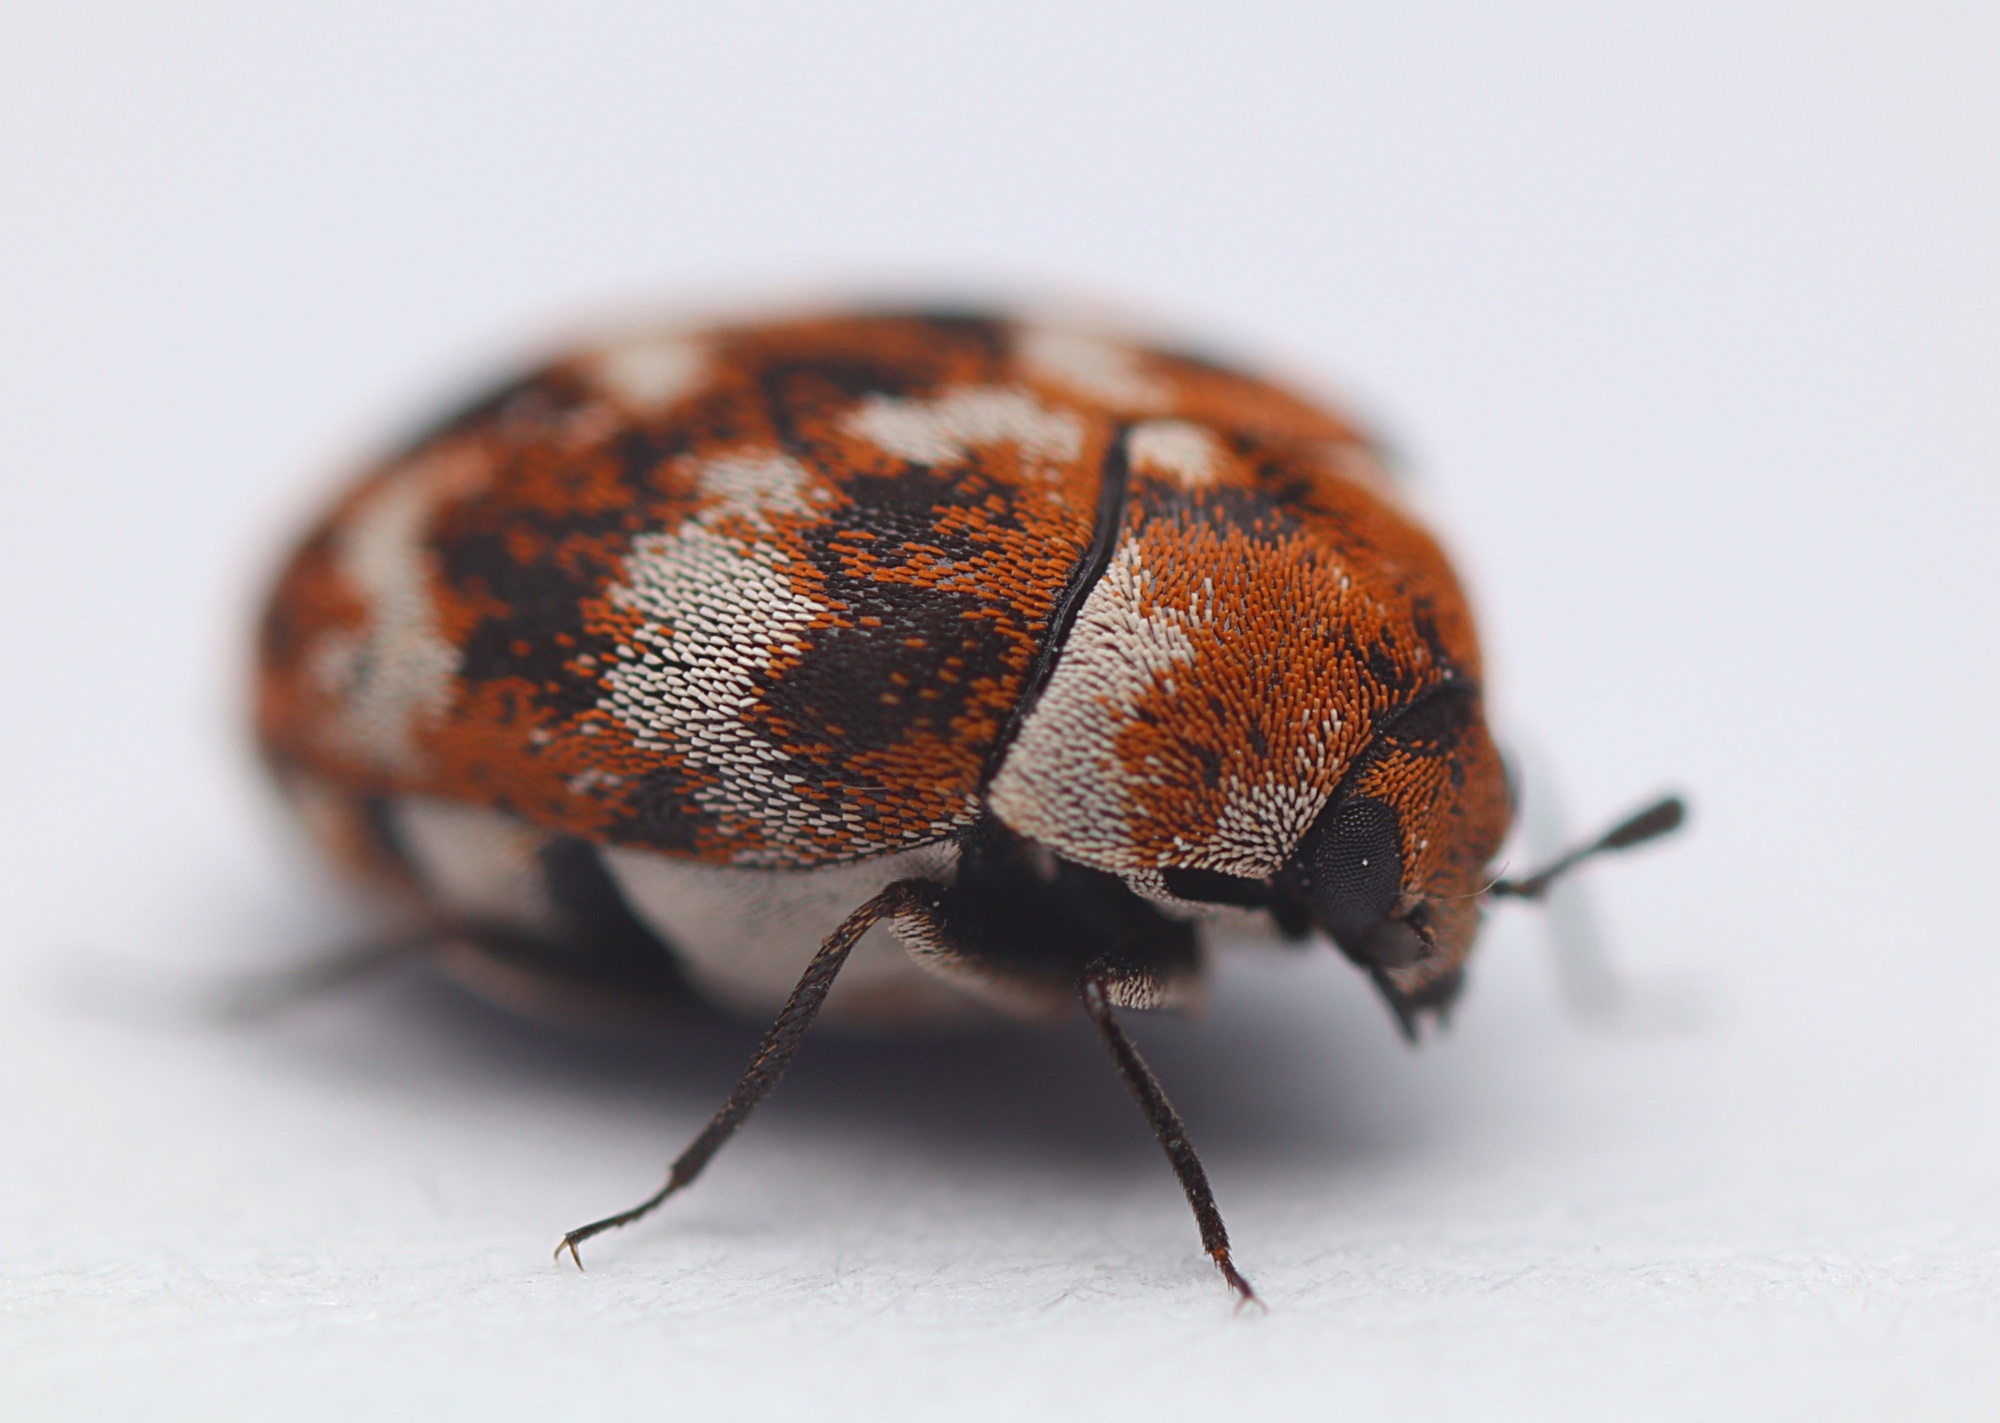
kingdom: Animalia
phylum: Arthropoda
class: Insecta
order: Coleoptera
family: Dermestidae
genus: Anthrenus
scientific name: Anthrenus verbasci
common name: Varied carpet beetle
